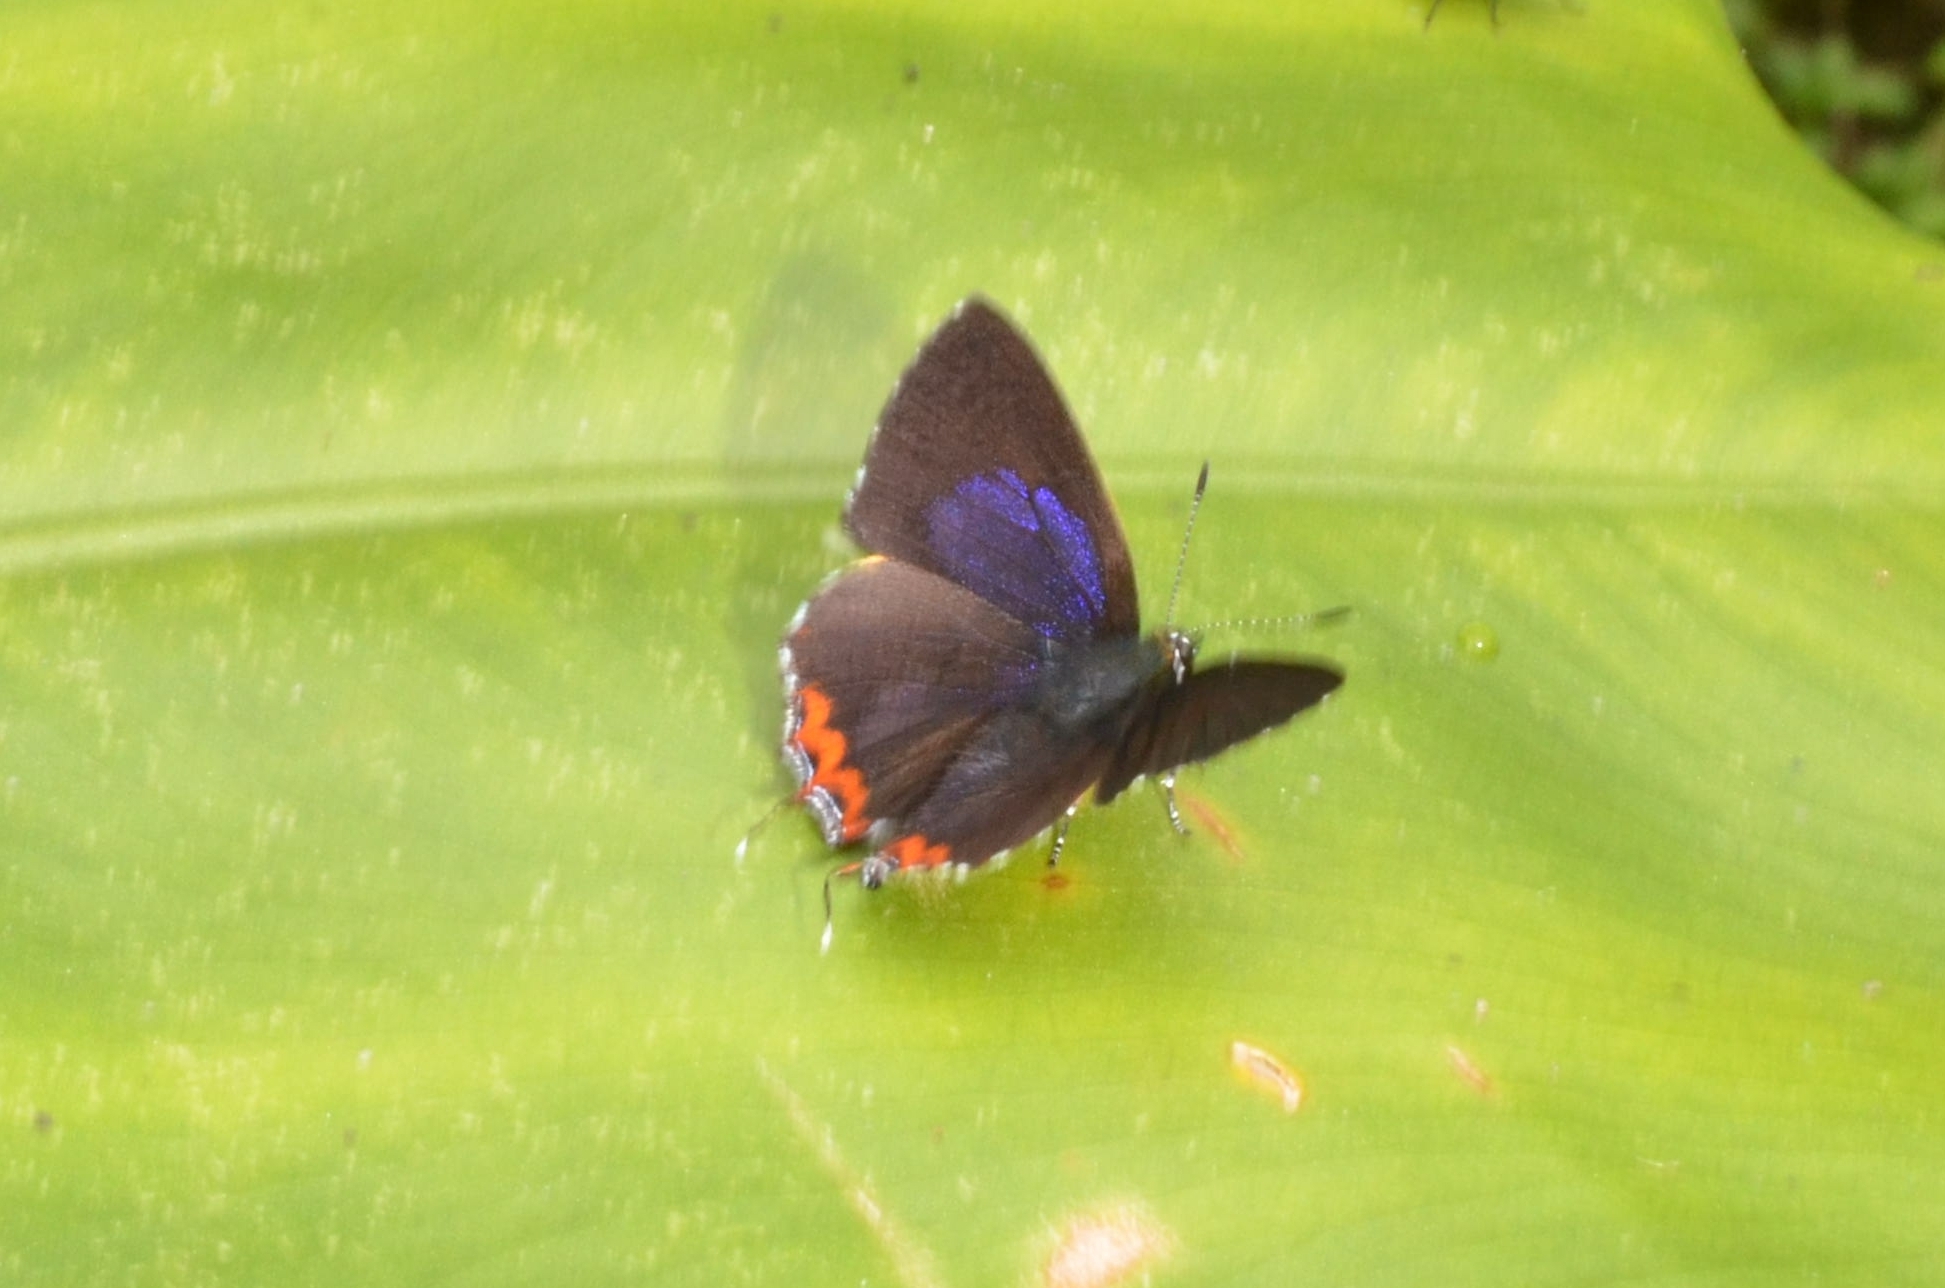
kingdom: Animalia
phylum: Arthropoda
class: Insecta
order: Lepidoptera
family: Lycaenidae
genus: Heliophorus
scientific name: Heliophorus ila
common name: Restricted purple sapphire
